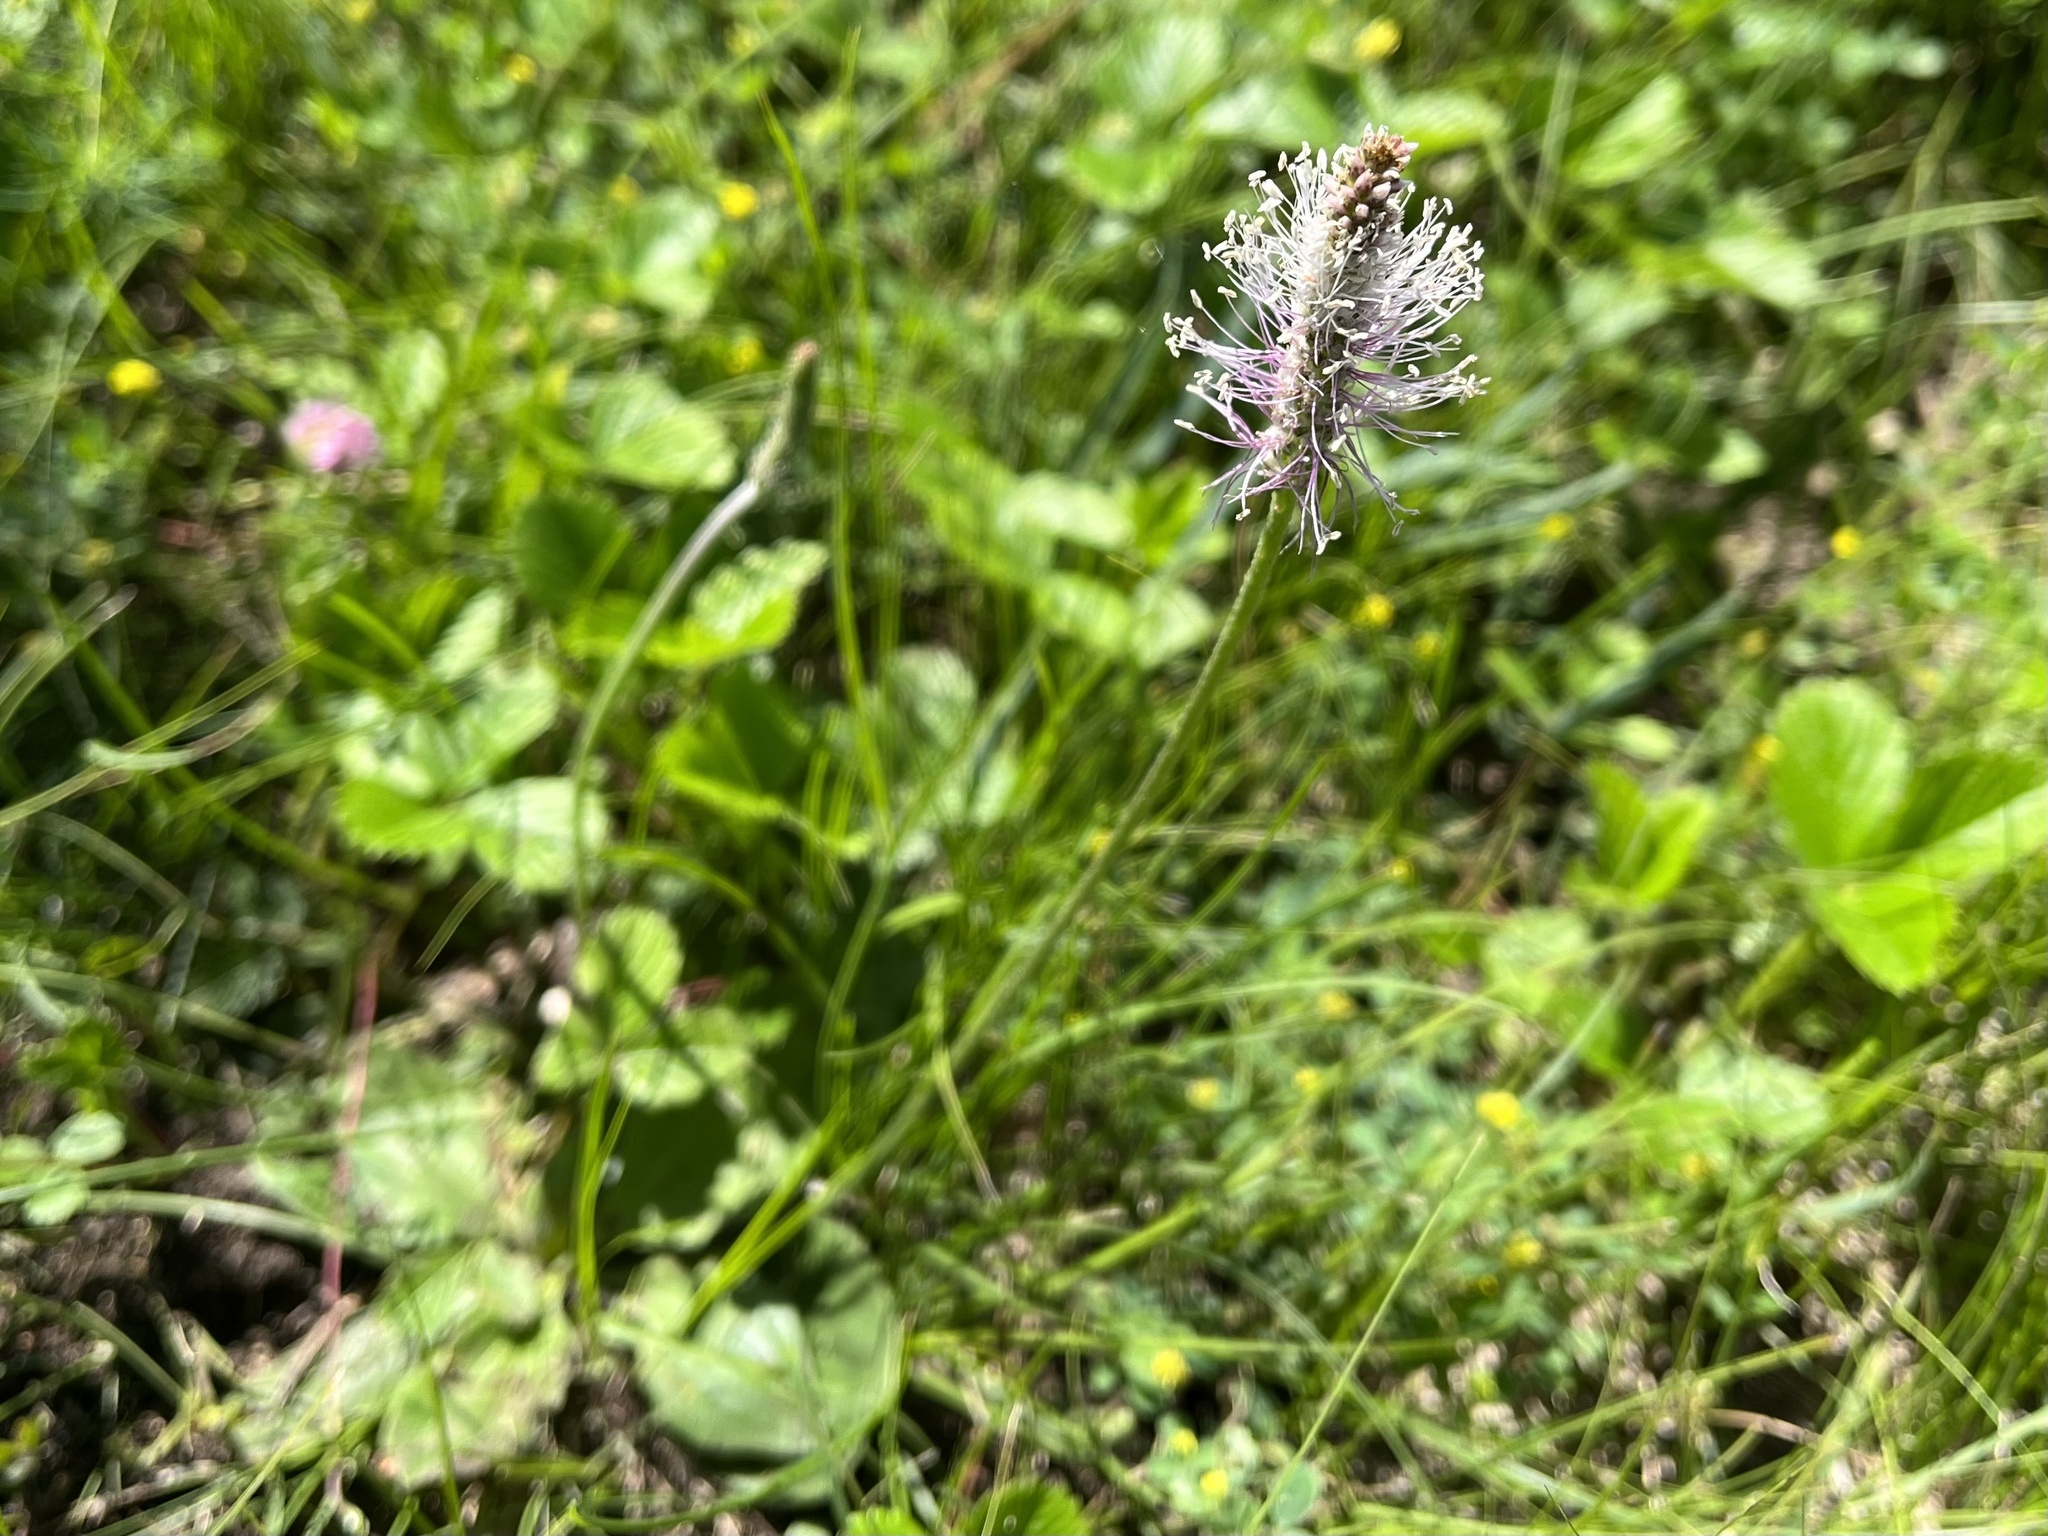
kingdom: Plantae
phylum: Tracheophyta
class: Magnoliopsida
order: Lamiales
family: Plantaginaceae
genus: Plantago
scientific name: Plantago media
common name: Hoary plantain
